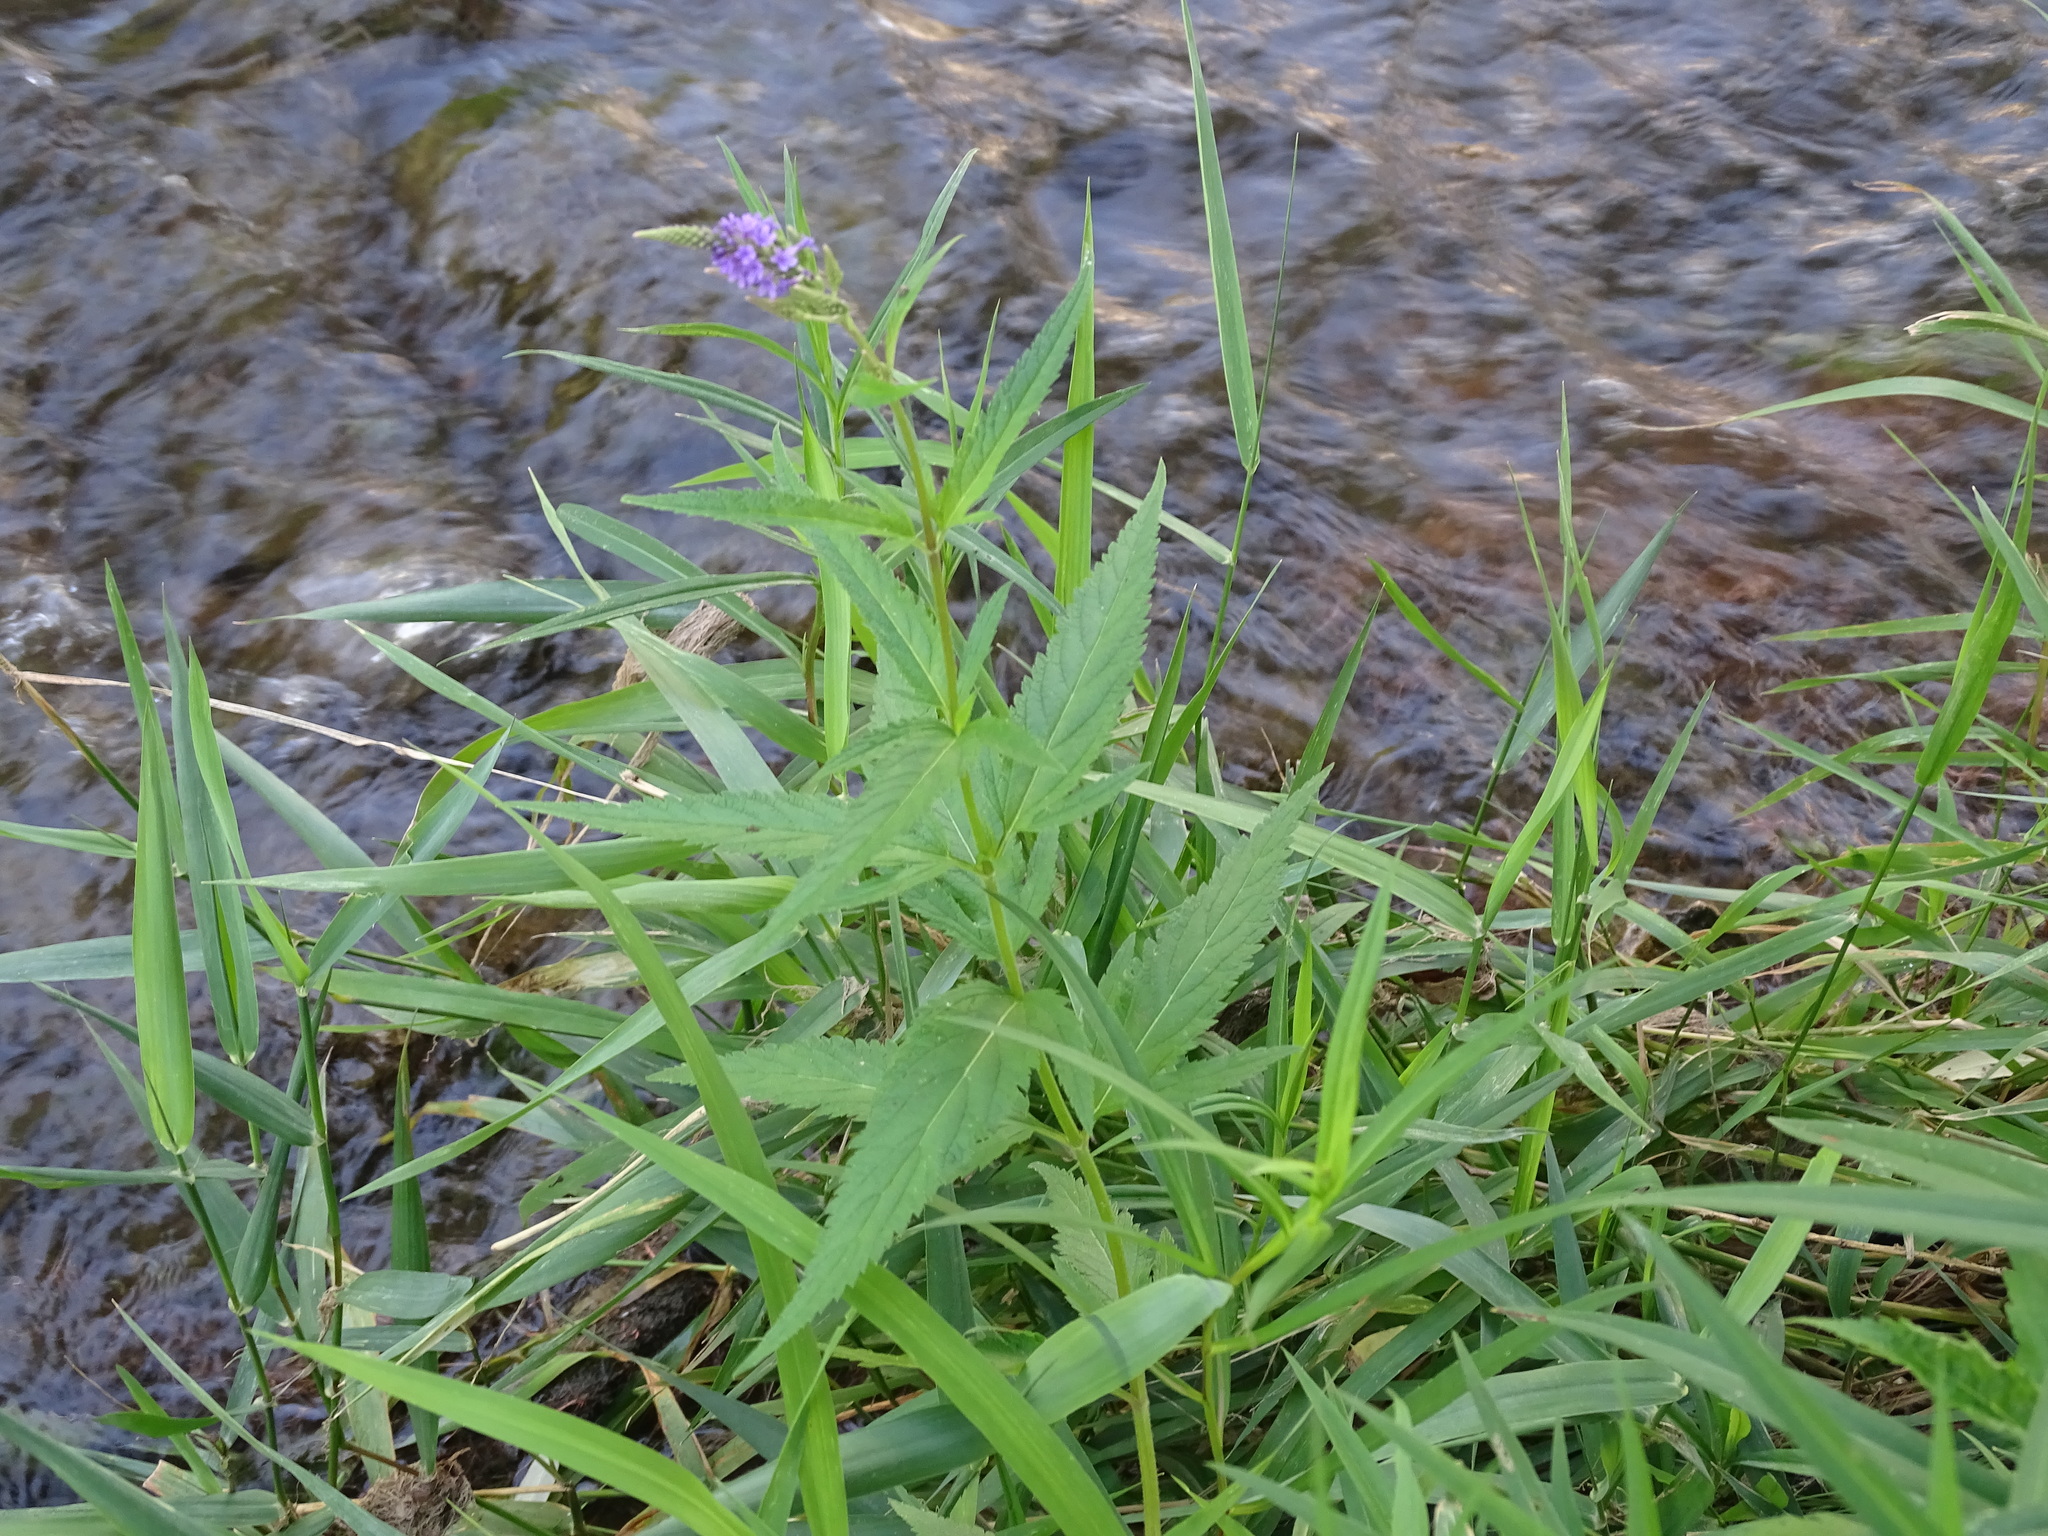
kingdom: Plantae
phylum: Tracheophyta
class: Magnoliopsida
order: Lamiales
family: Verbenaceae
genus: Verbena
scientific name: Verbena hastata
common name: American blue vervain
